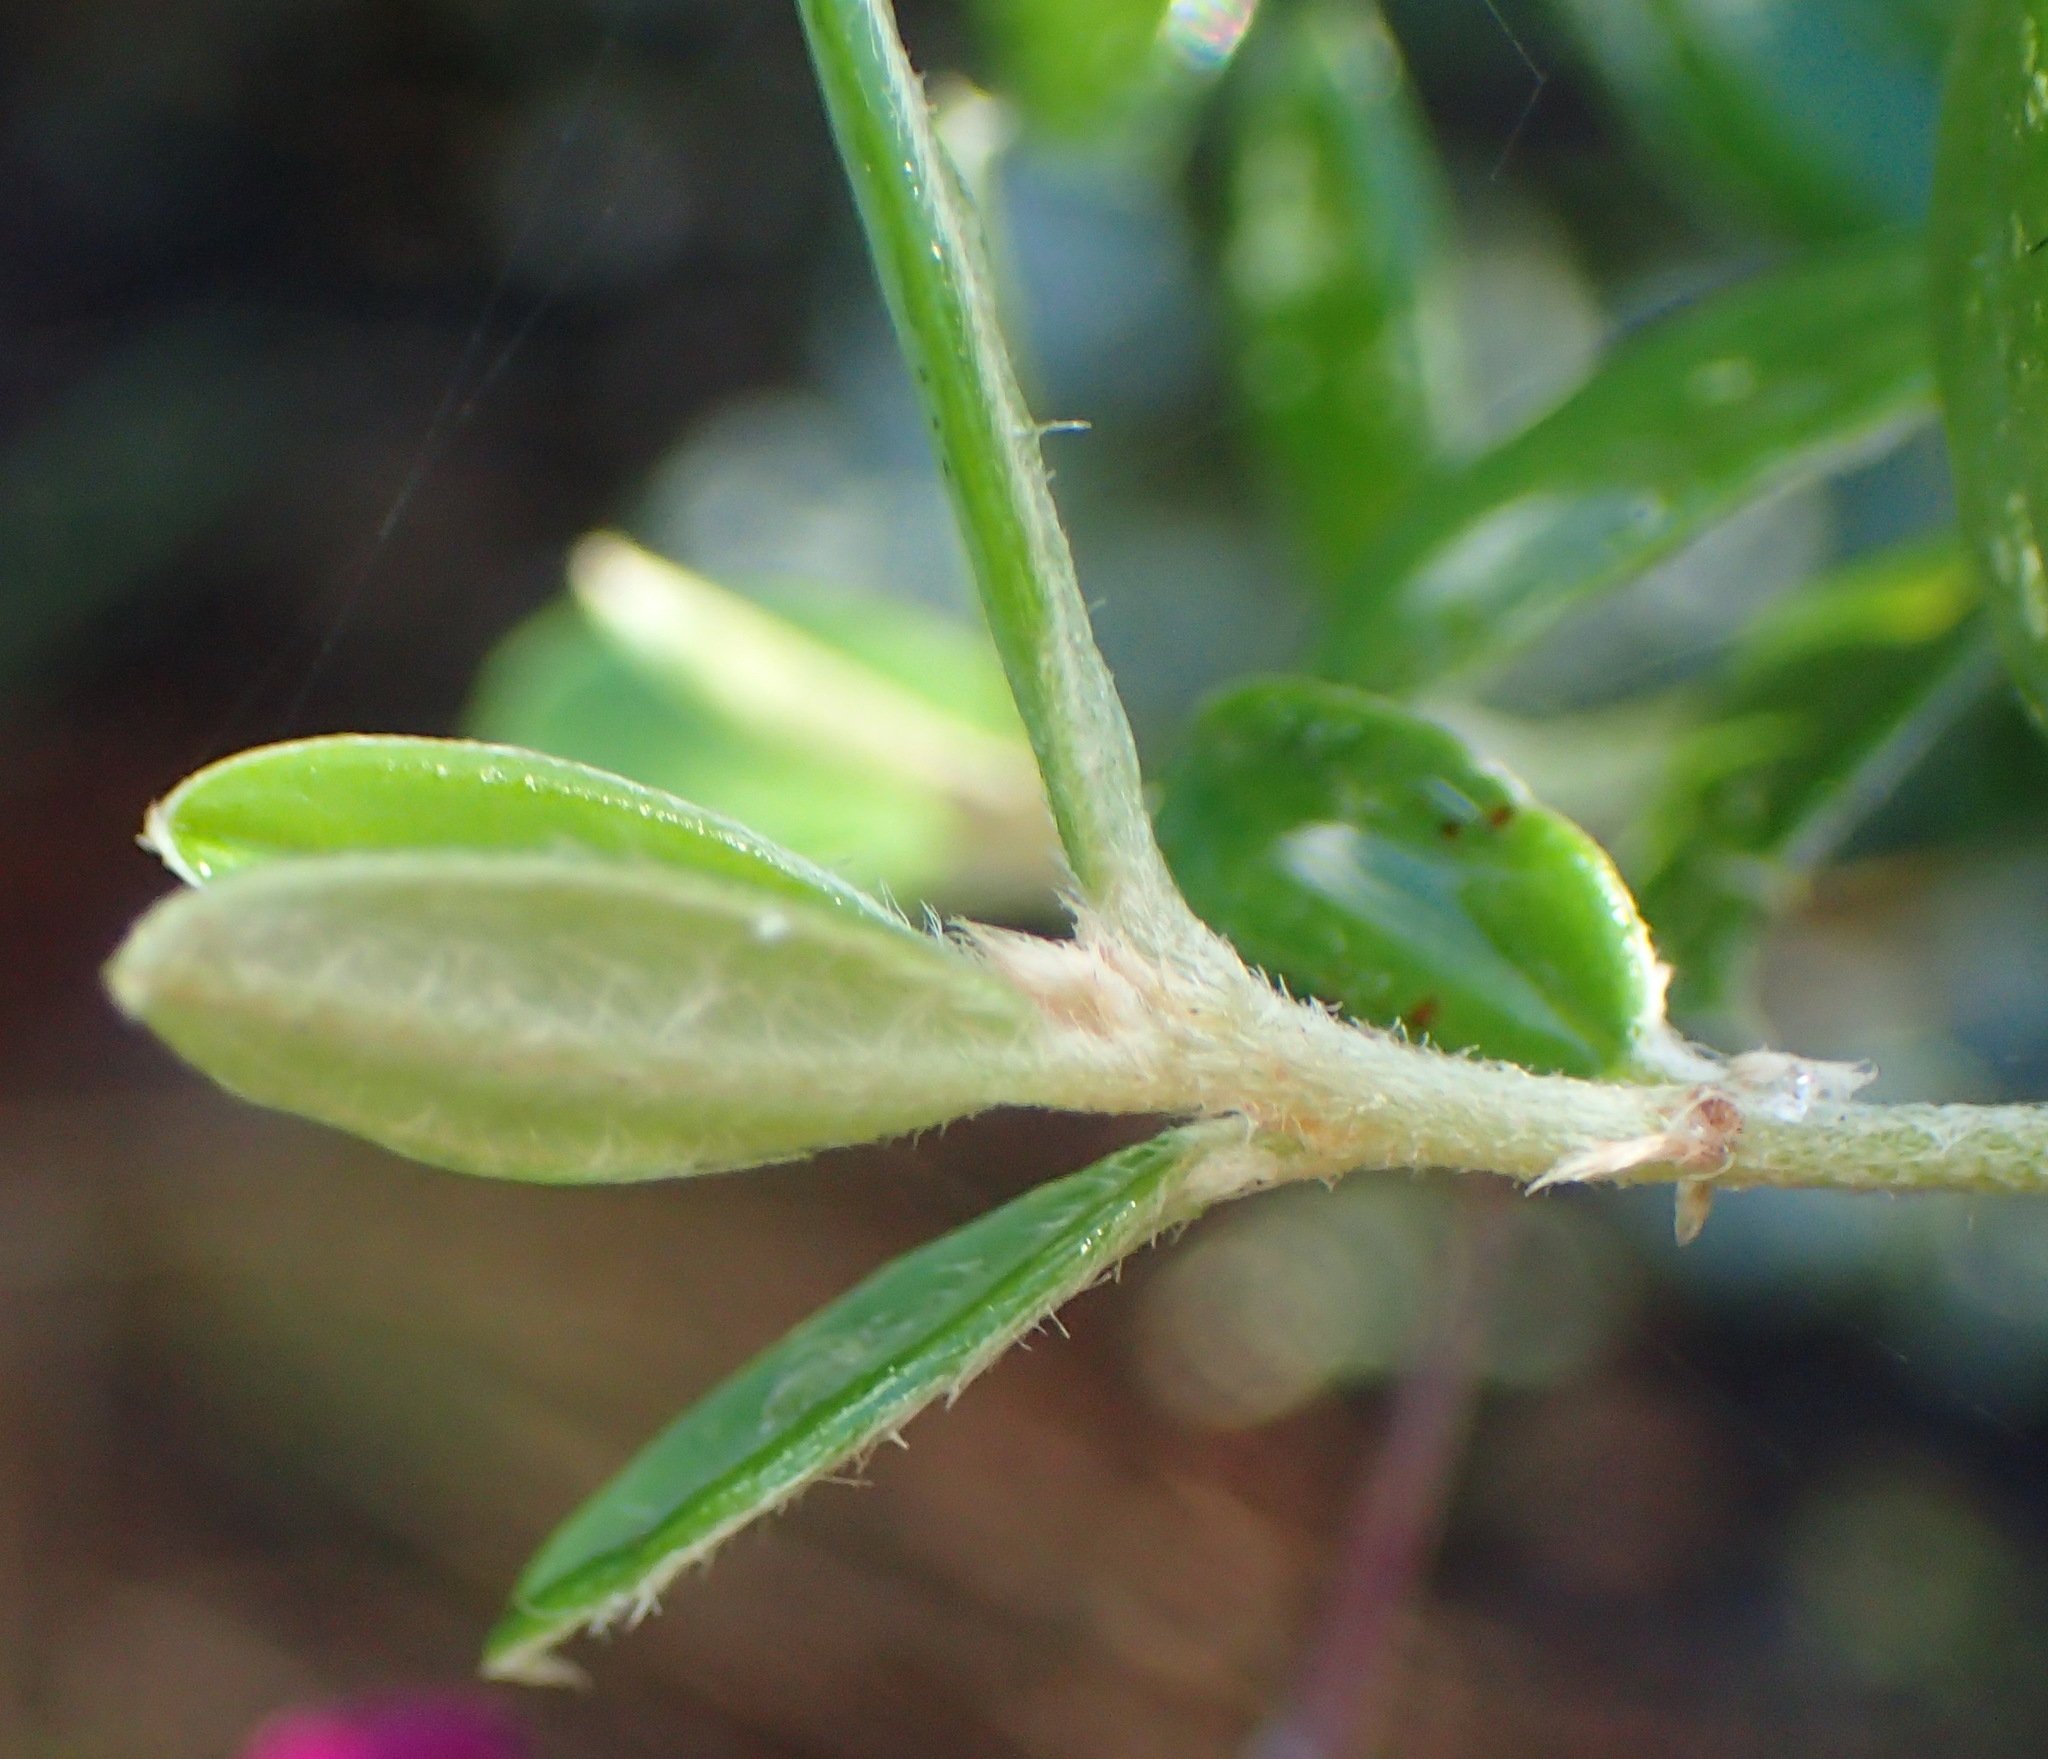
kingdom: Plantae
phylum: Tracheophyta
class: Magnoliopsida
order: Fabales
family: Fabaceae
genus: Podalyria
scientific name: Podalyria buxifolia
